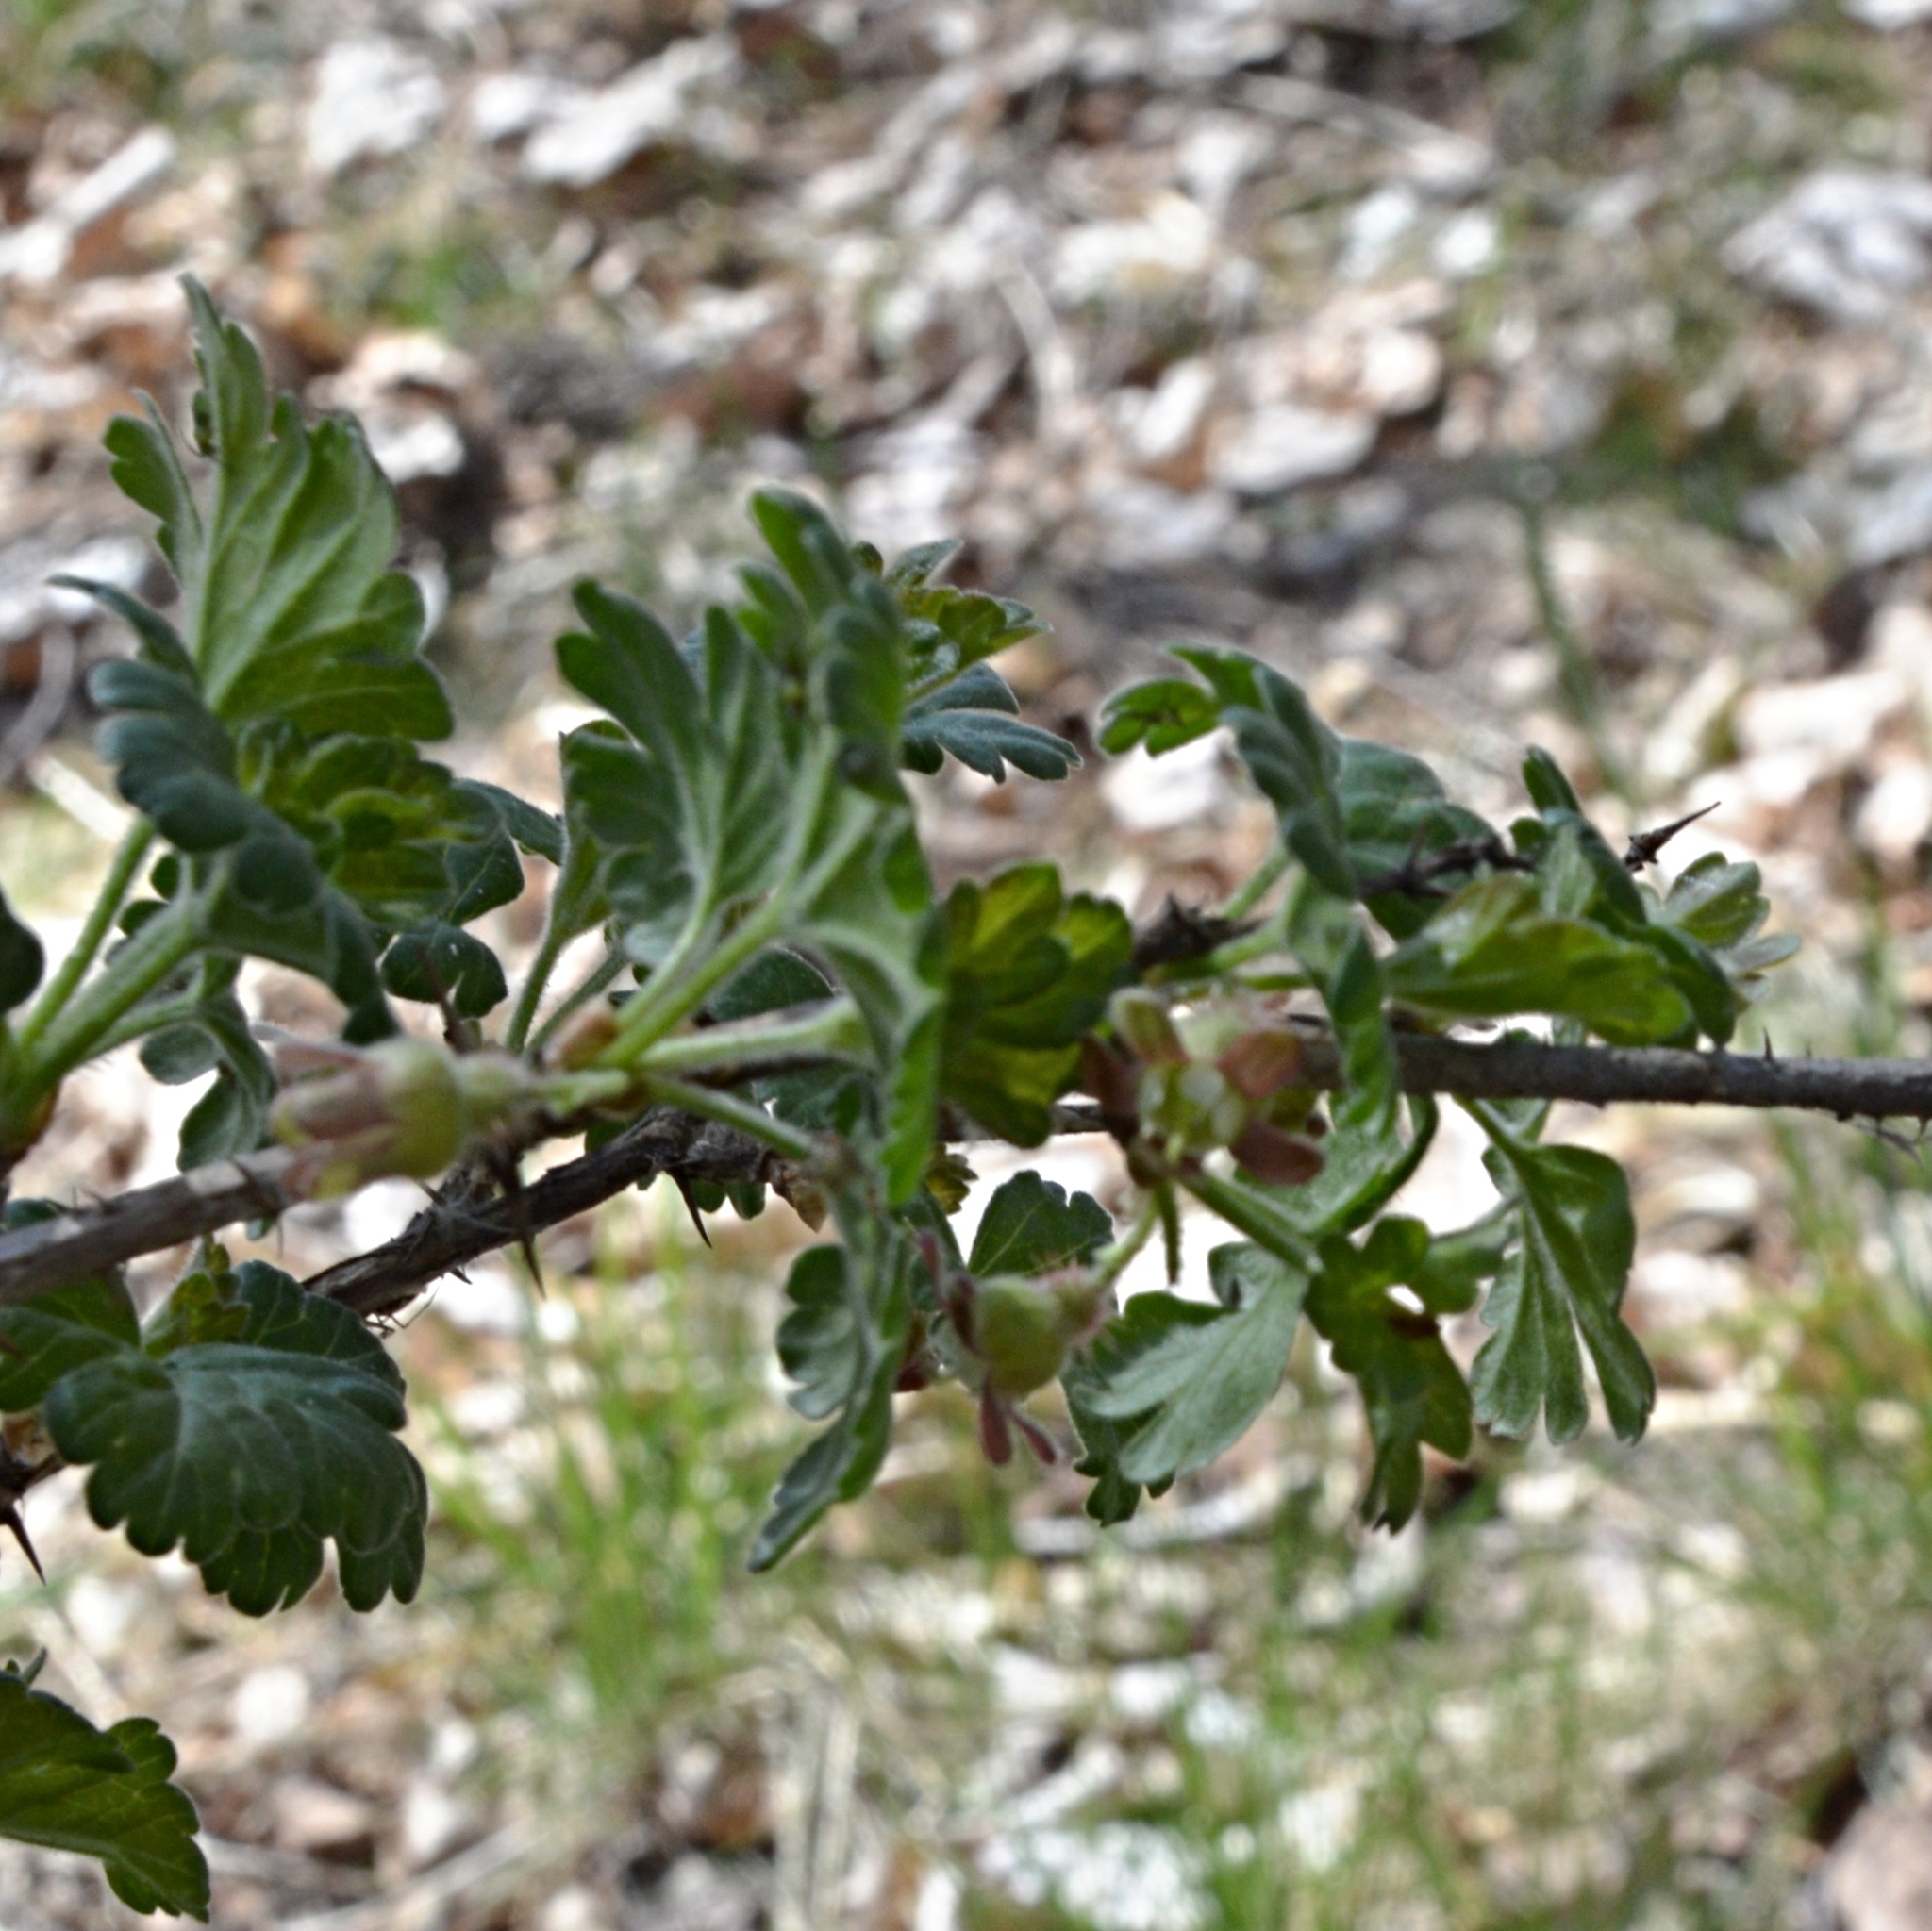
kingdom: Plantae
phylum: Tracheophyta
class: Magnoliopsida
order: Saxifragales
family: Grossulariaceae
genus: Ribes
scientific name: Ribes uva-crispa
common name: Gooseberry
